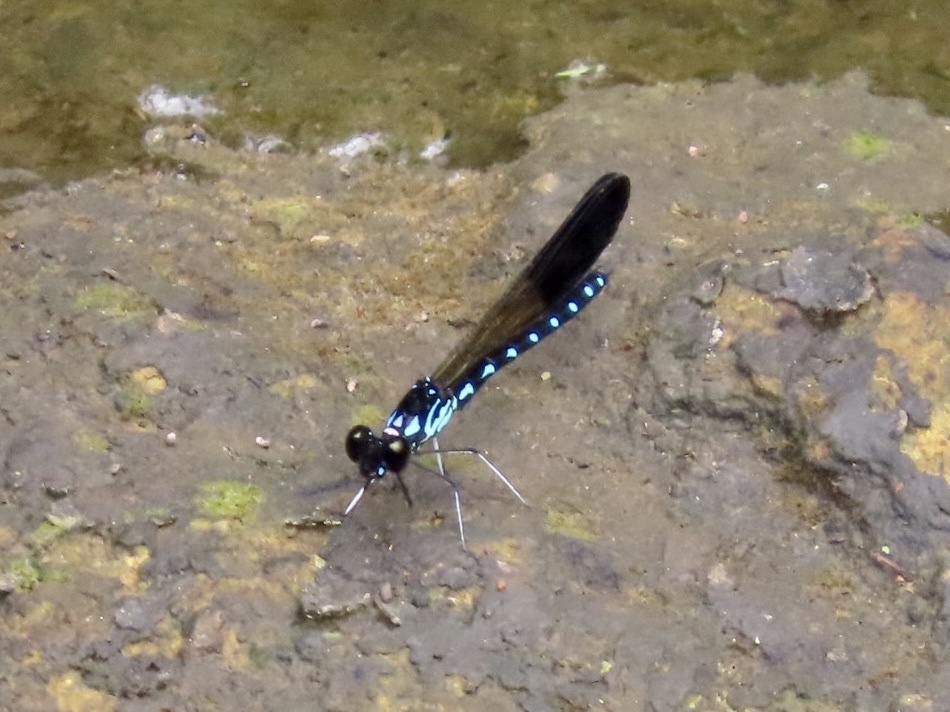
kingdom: Animalia
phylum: Arthropoda
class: Insecta
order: Odonata
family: Chlorocyphidae
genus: Heliocypha
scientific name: Heliocypha perforata
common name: Common blue jewel
